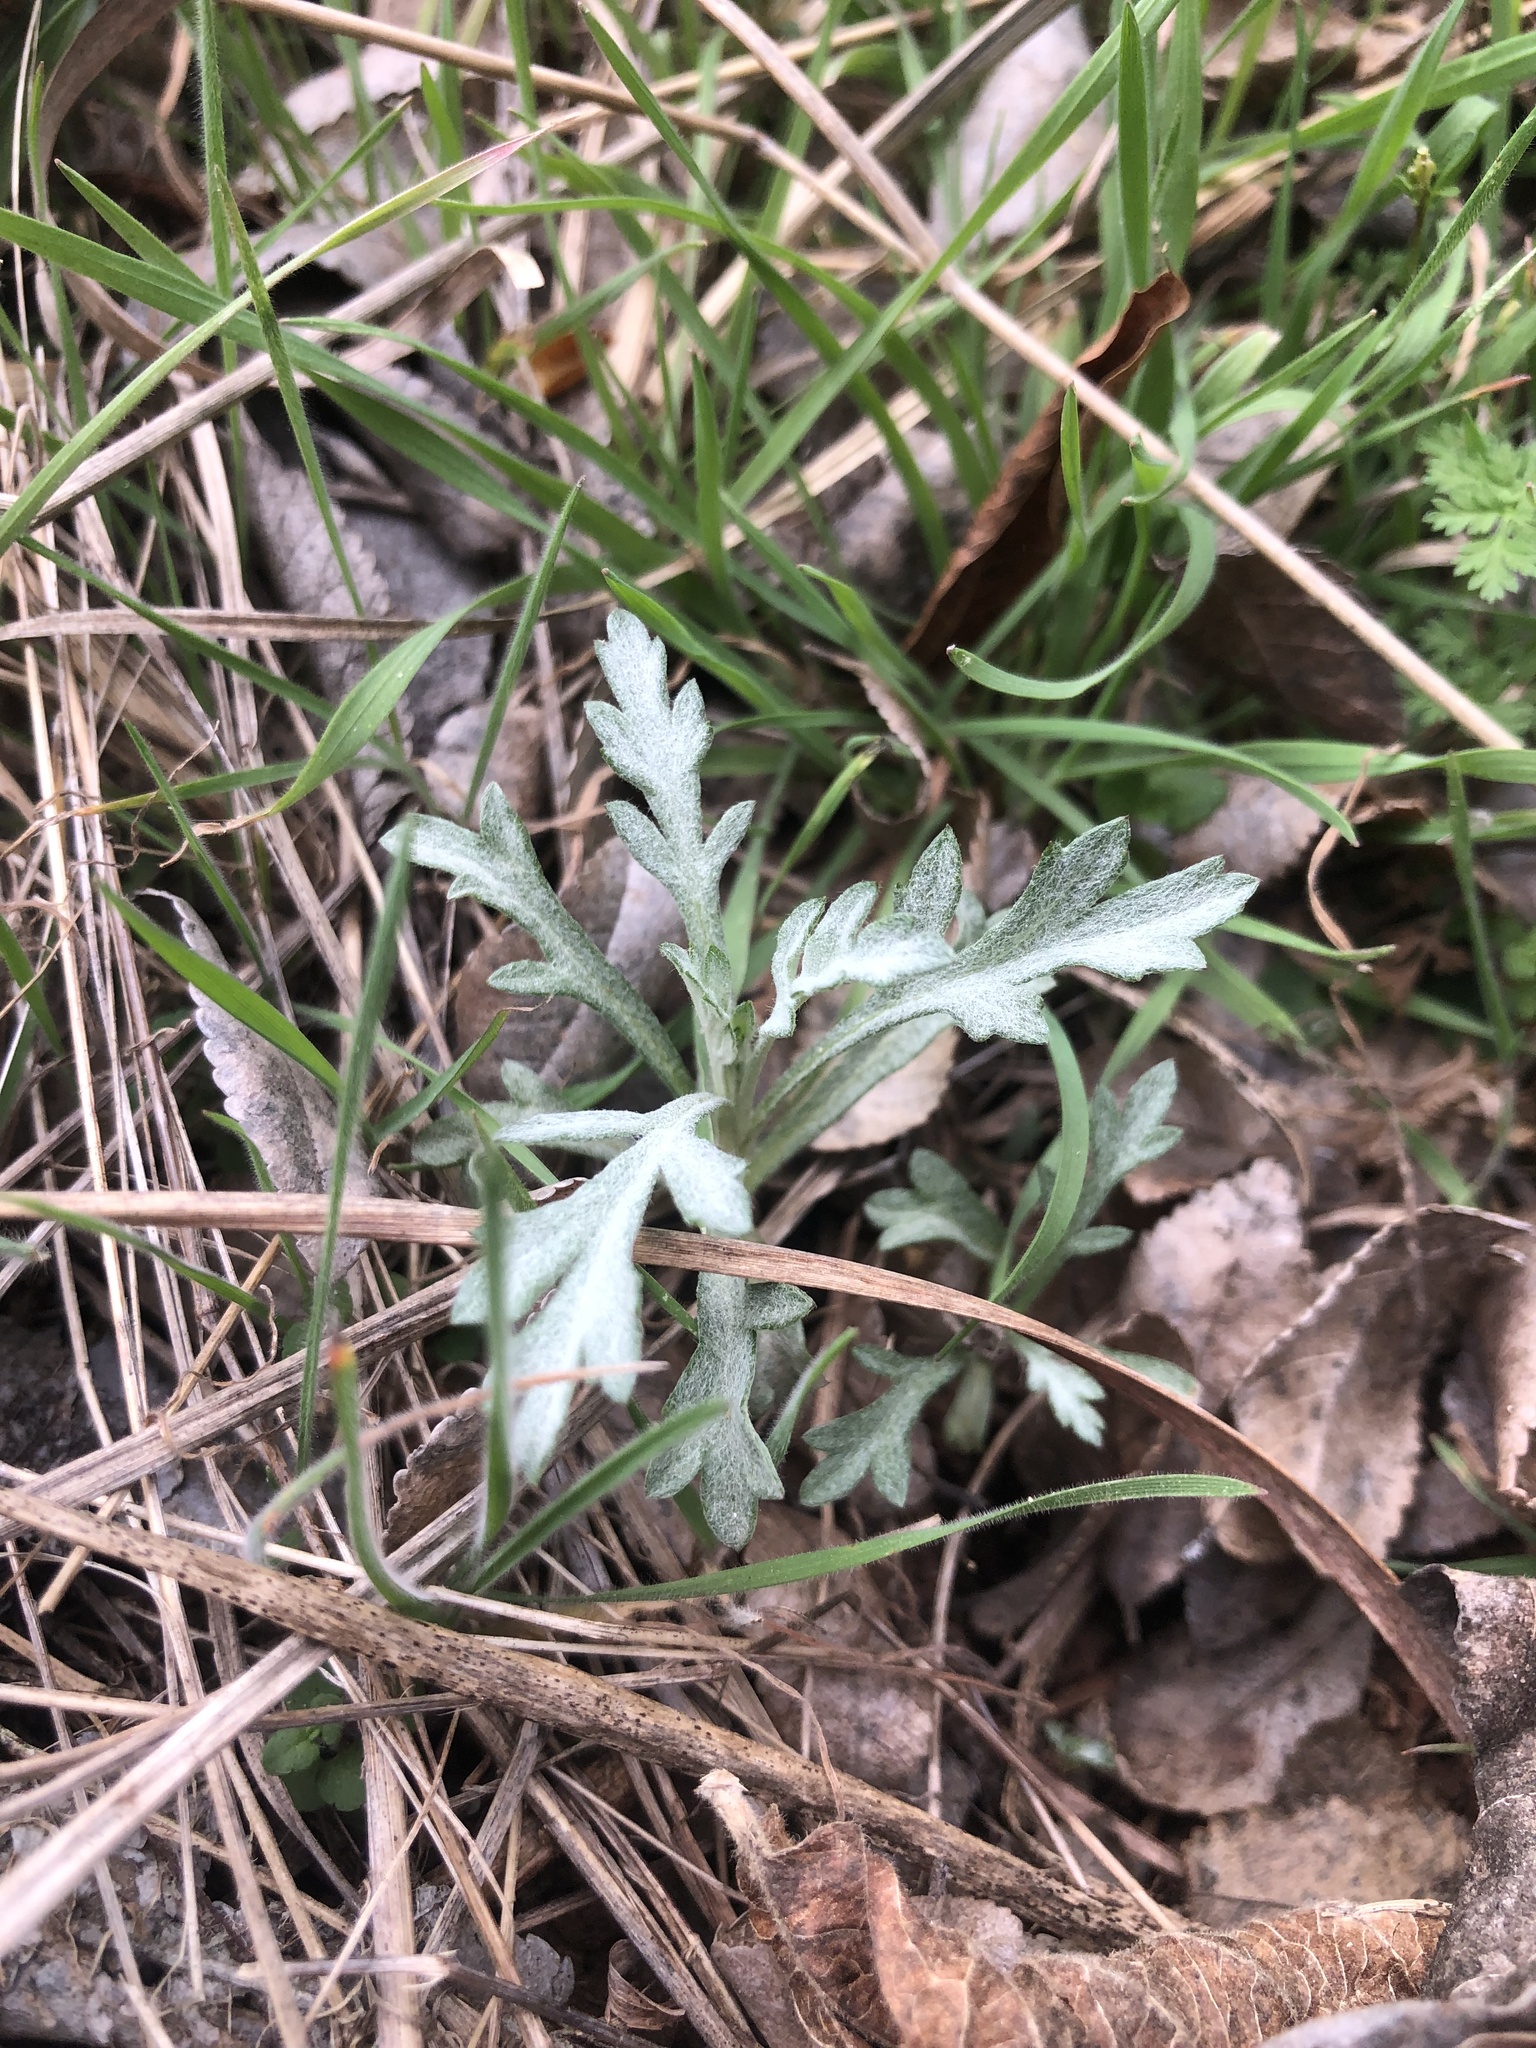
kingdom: Plantae
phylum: Tracheophyta
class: Magnoliopsida
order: Asterales
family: Asteraceae
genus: Artemisia
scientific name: Artemisia ludoviciana
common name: Western mugwort
